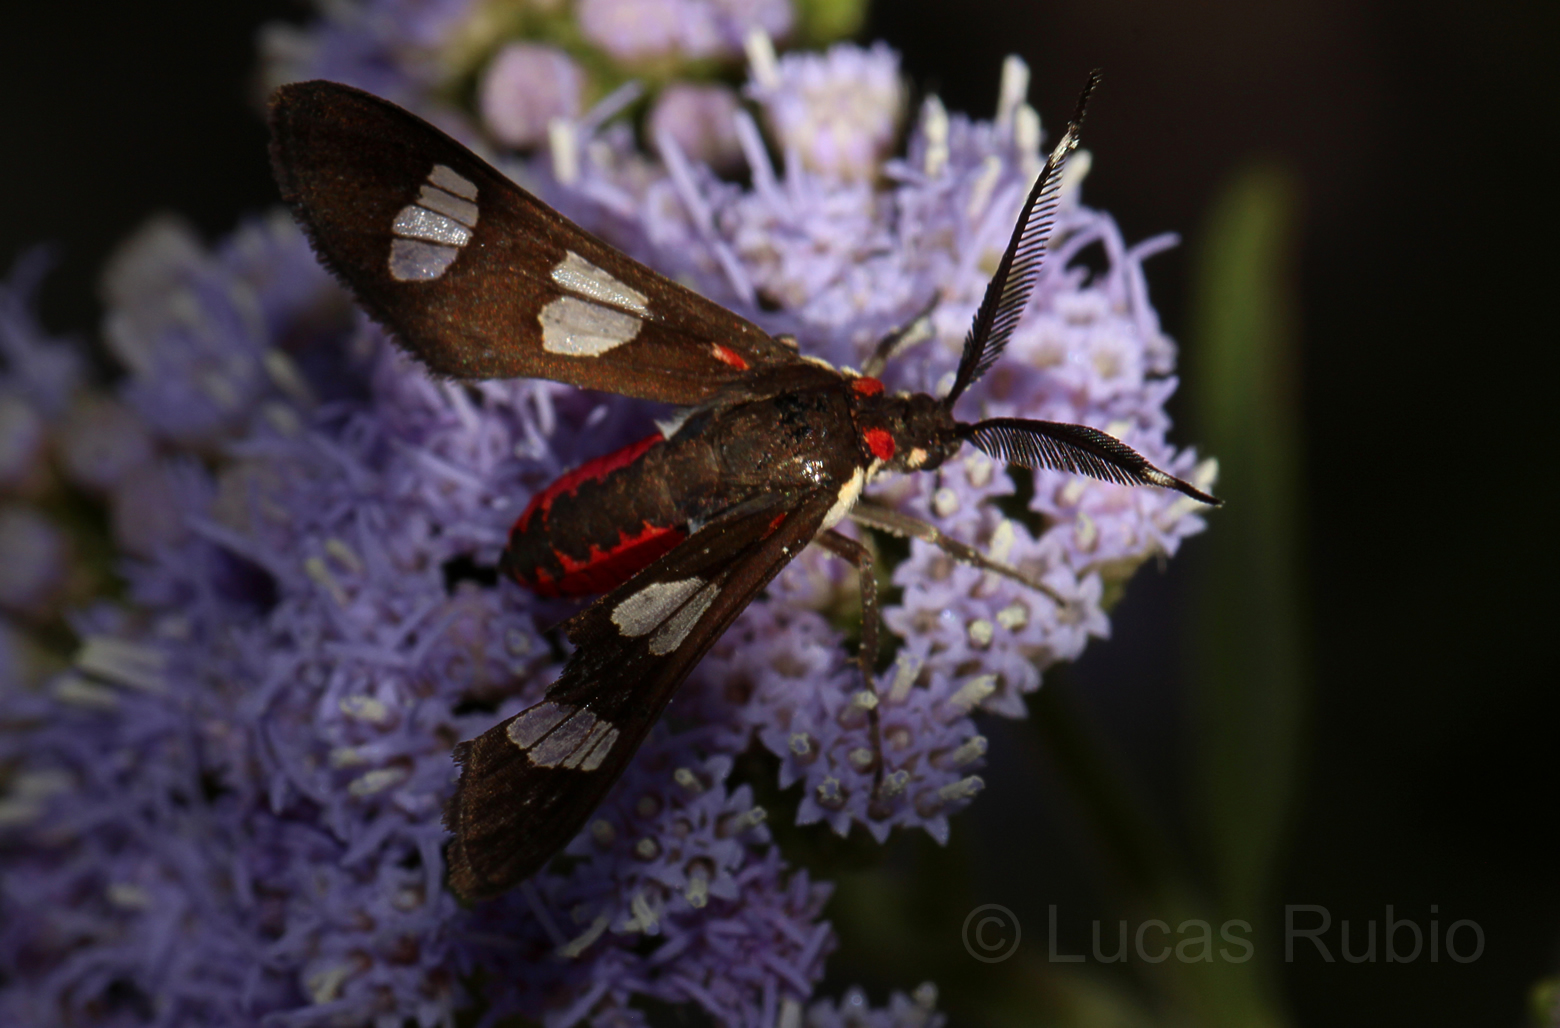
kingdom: Animalia
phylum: Arthropoda
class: Insecta
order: Lepidoptera
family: Erebidae
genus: Phoenicoprocta
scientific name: Phoenicoprocta teda
